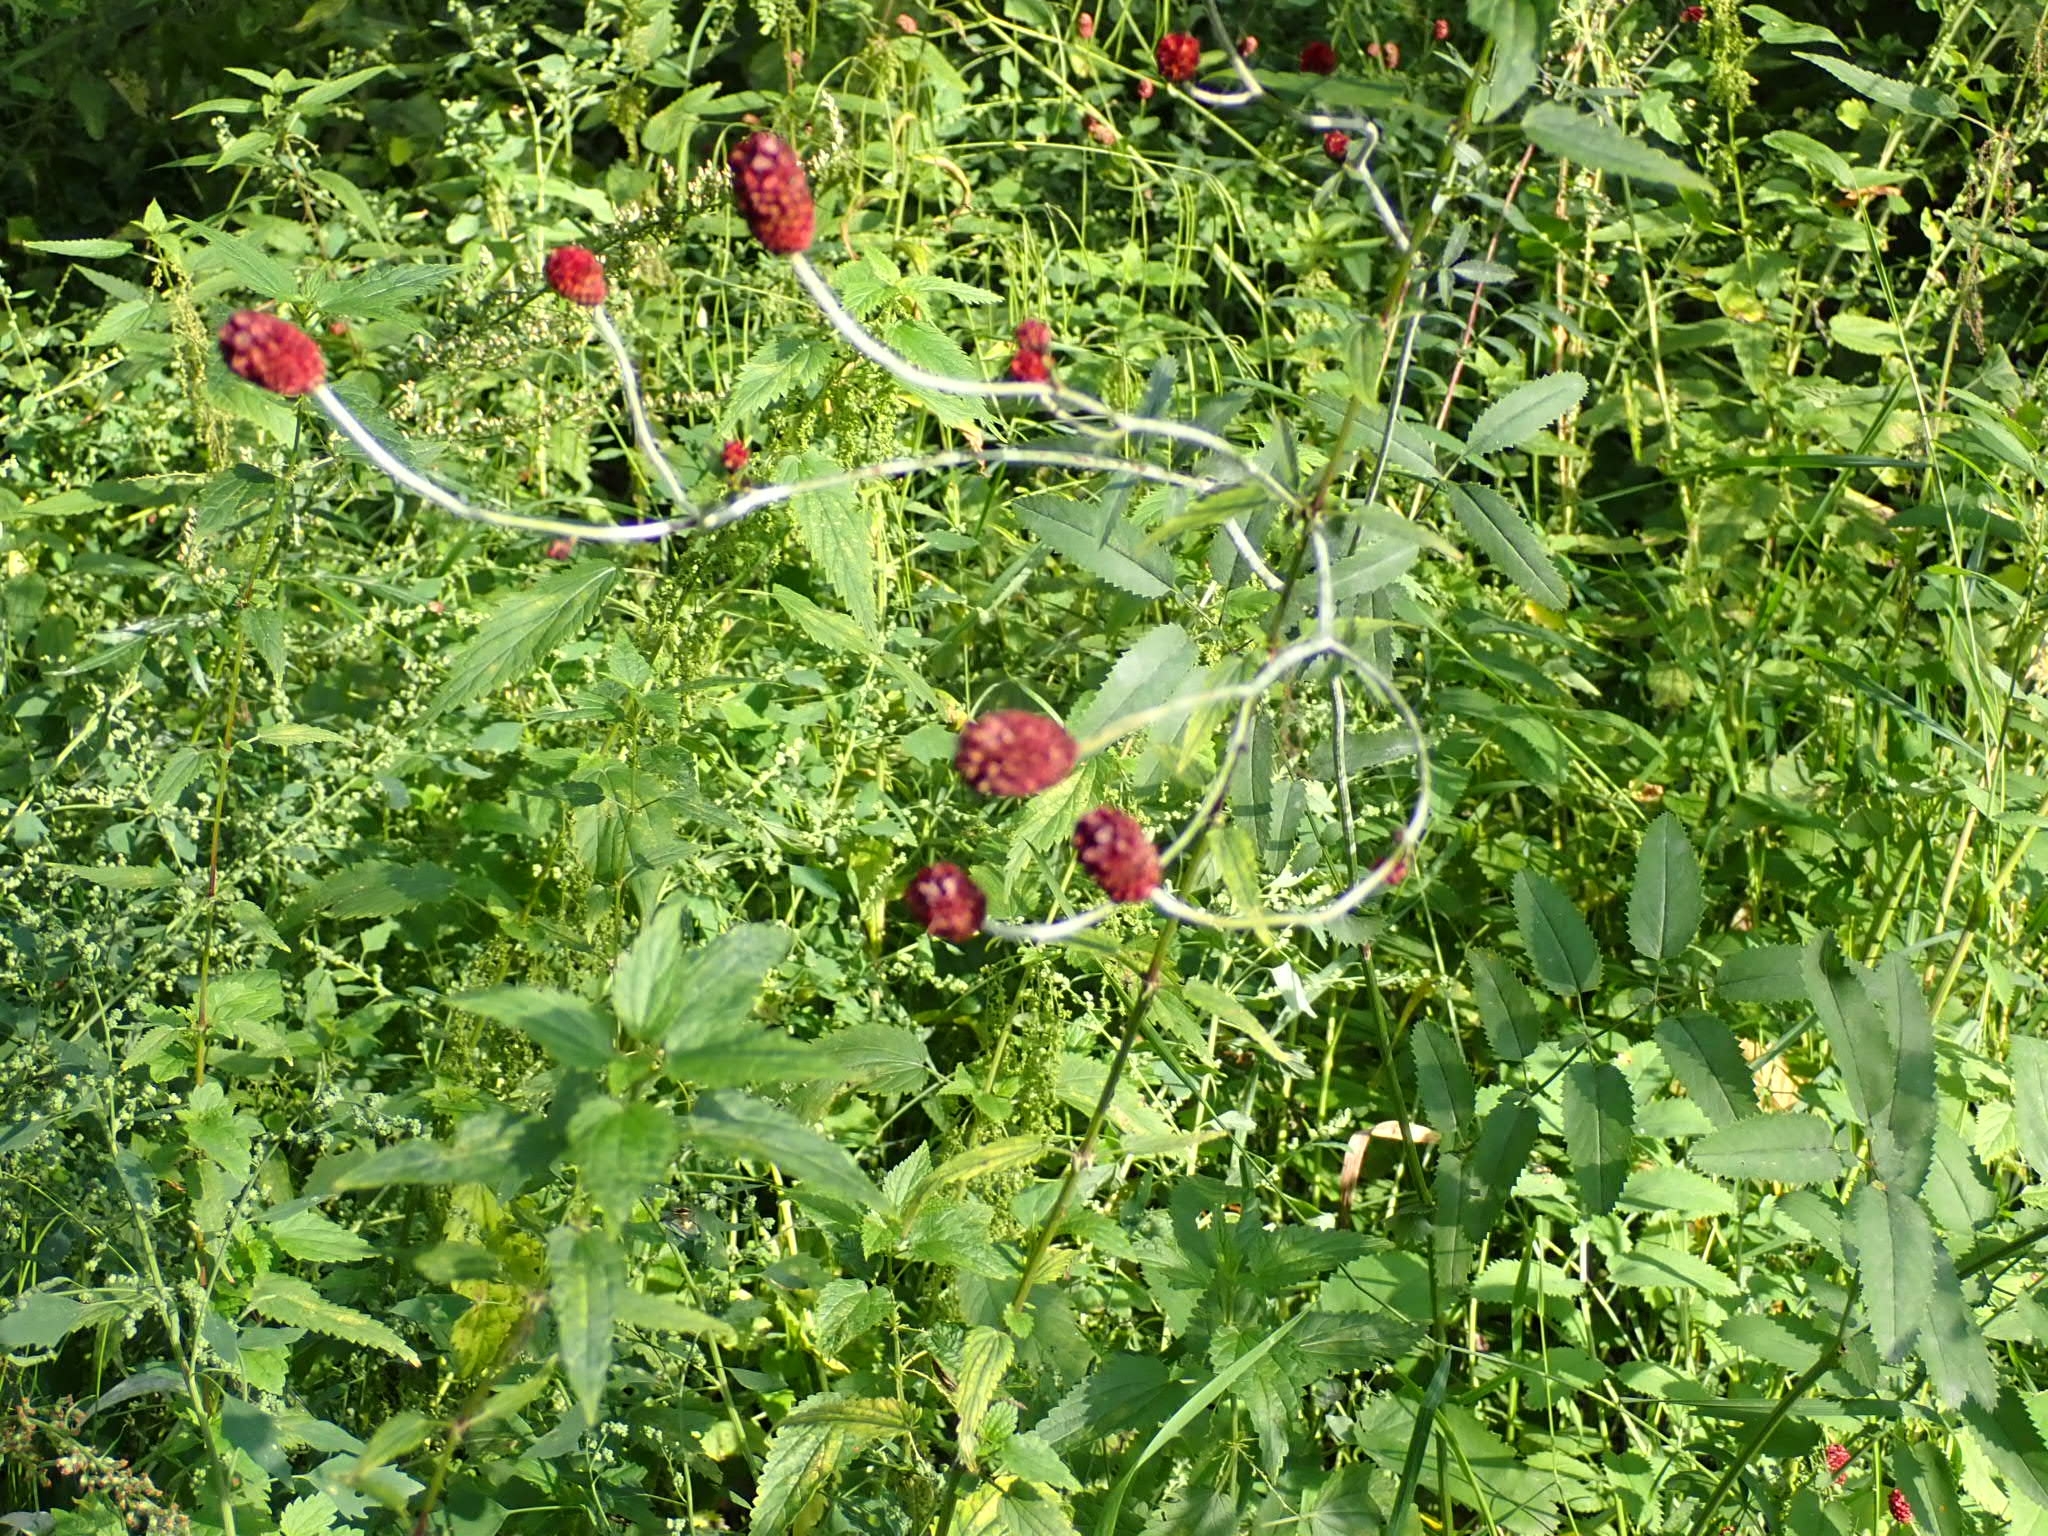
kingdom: Plantae
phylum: Tracheophyta
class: Magnoliopsida
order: Rosales
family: Rosaceae
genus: Sanguisorba
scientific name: Sanguisorba officinalis
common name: Great burnet
